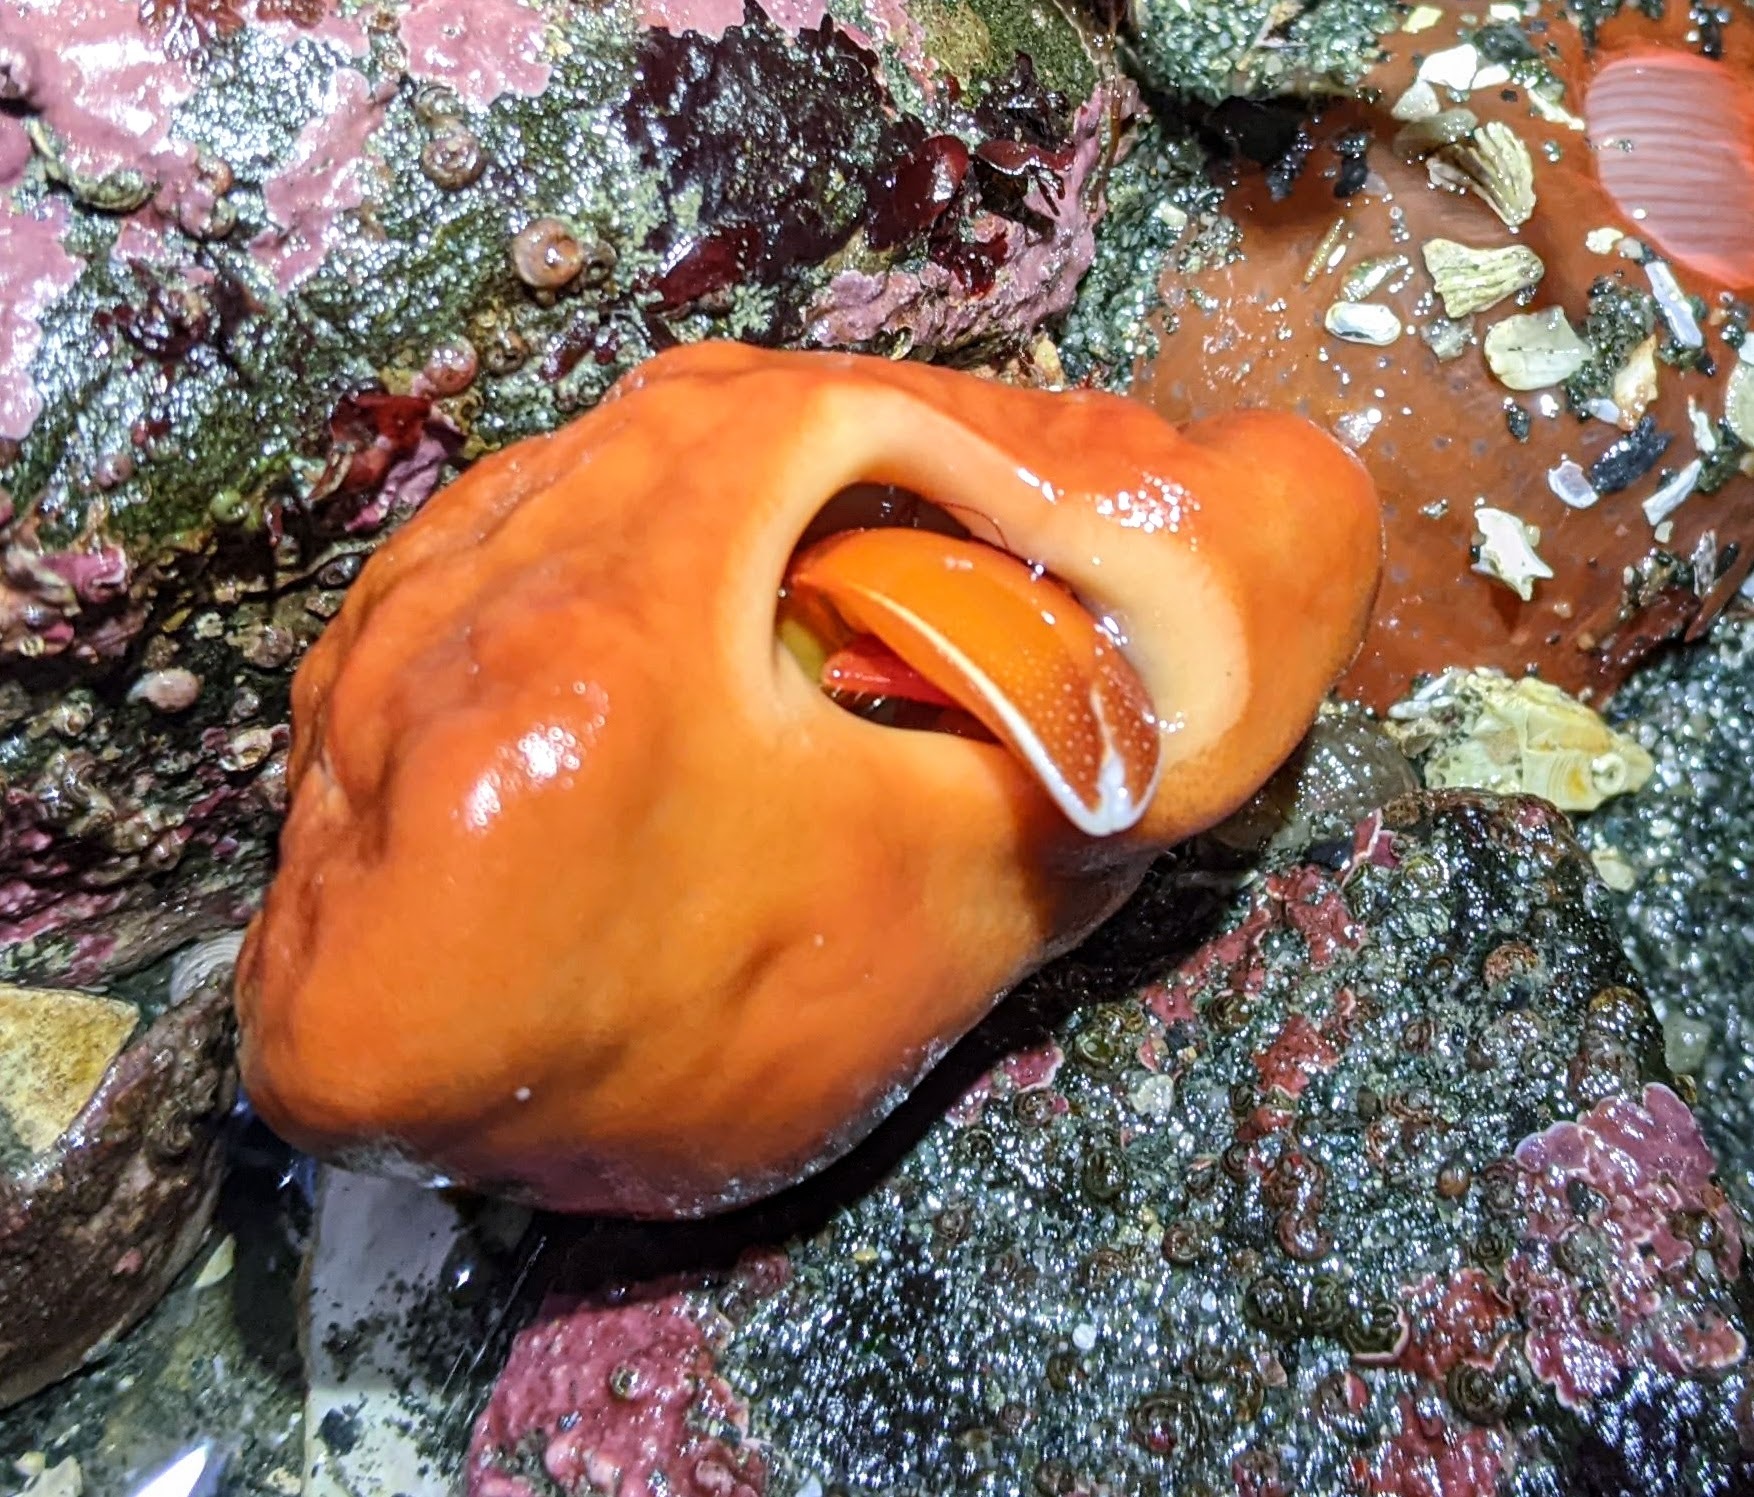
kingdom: Animalia
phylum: Porifera
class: Demospongiae
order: Suberitida
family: Suberitidae
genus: Suberites
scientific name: Suberites latus
